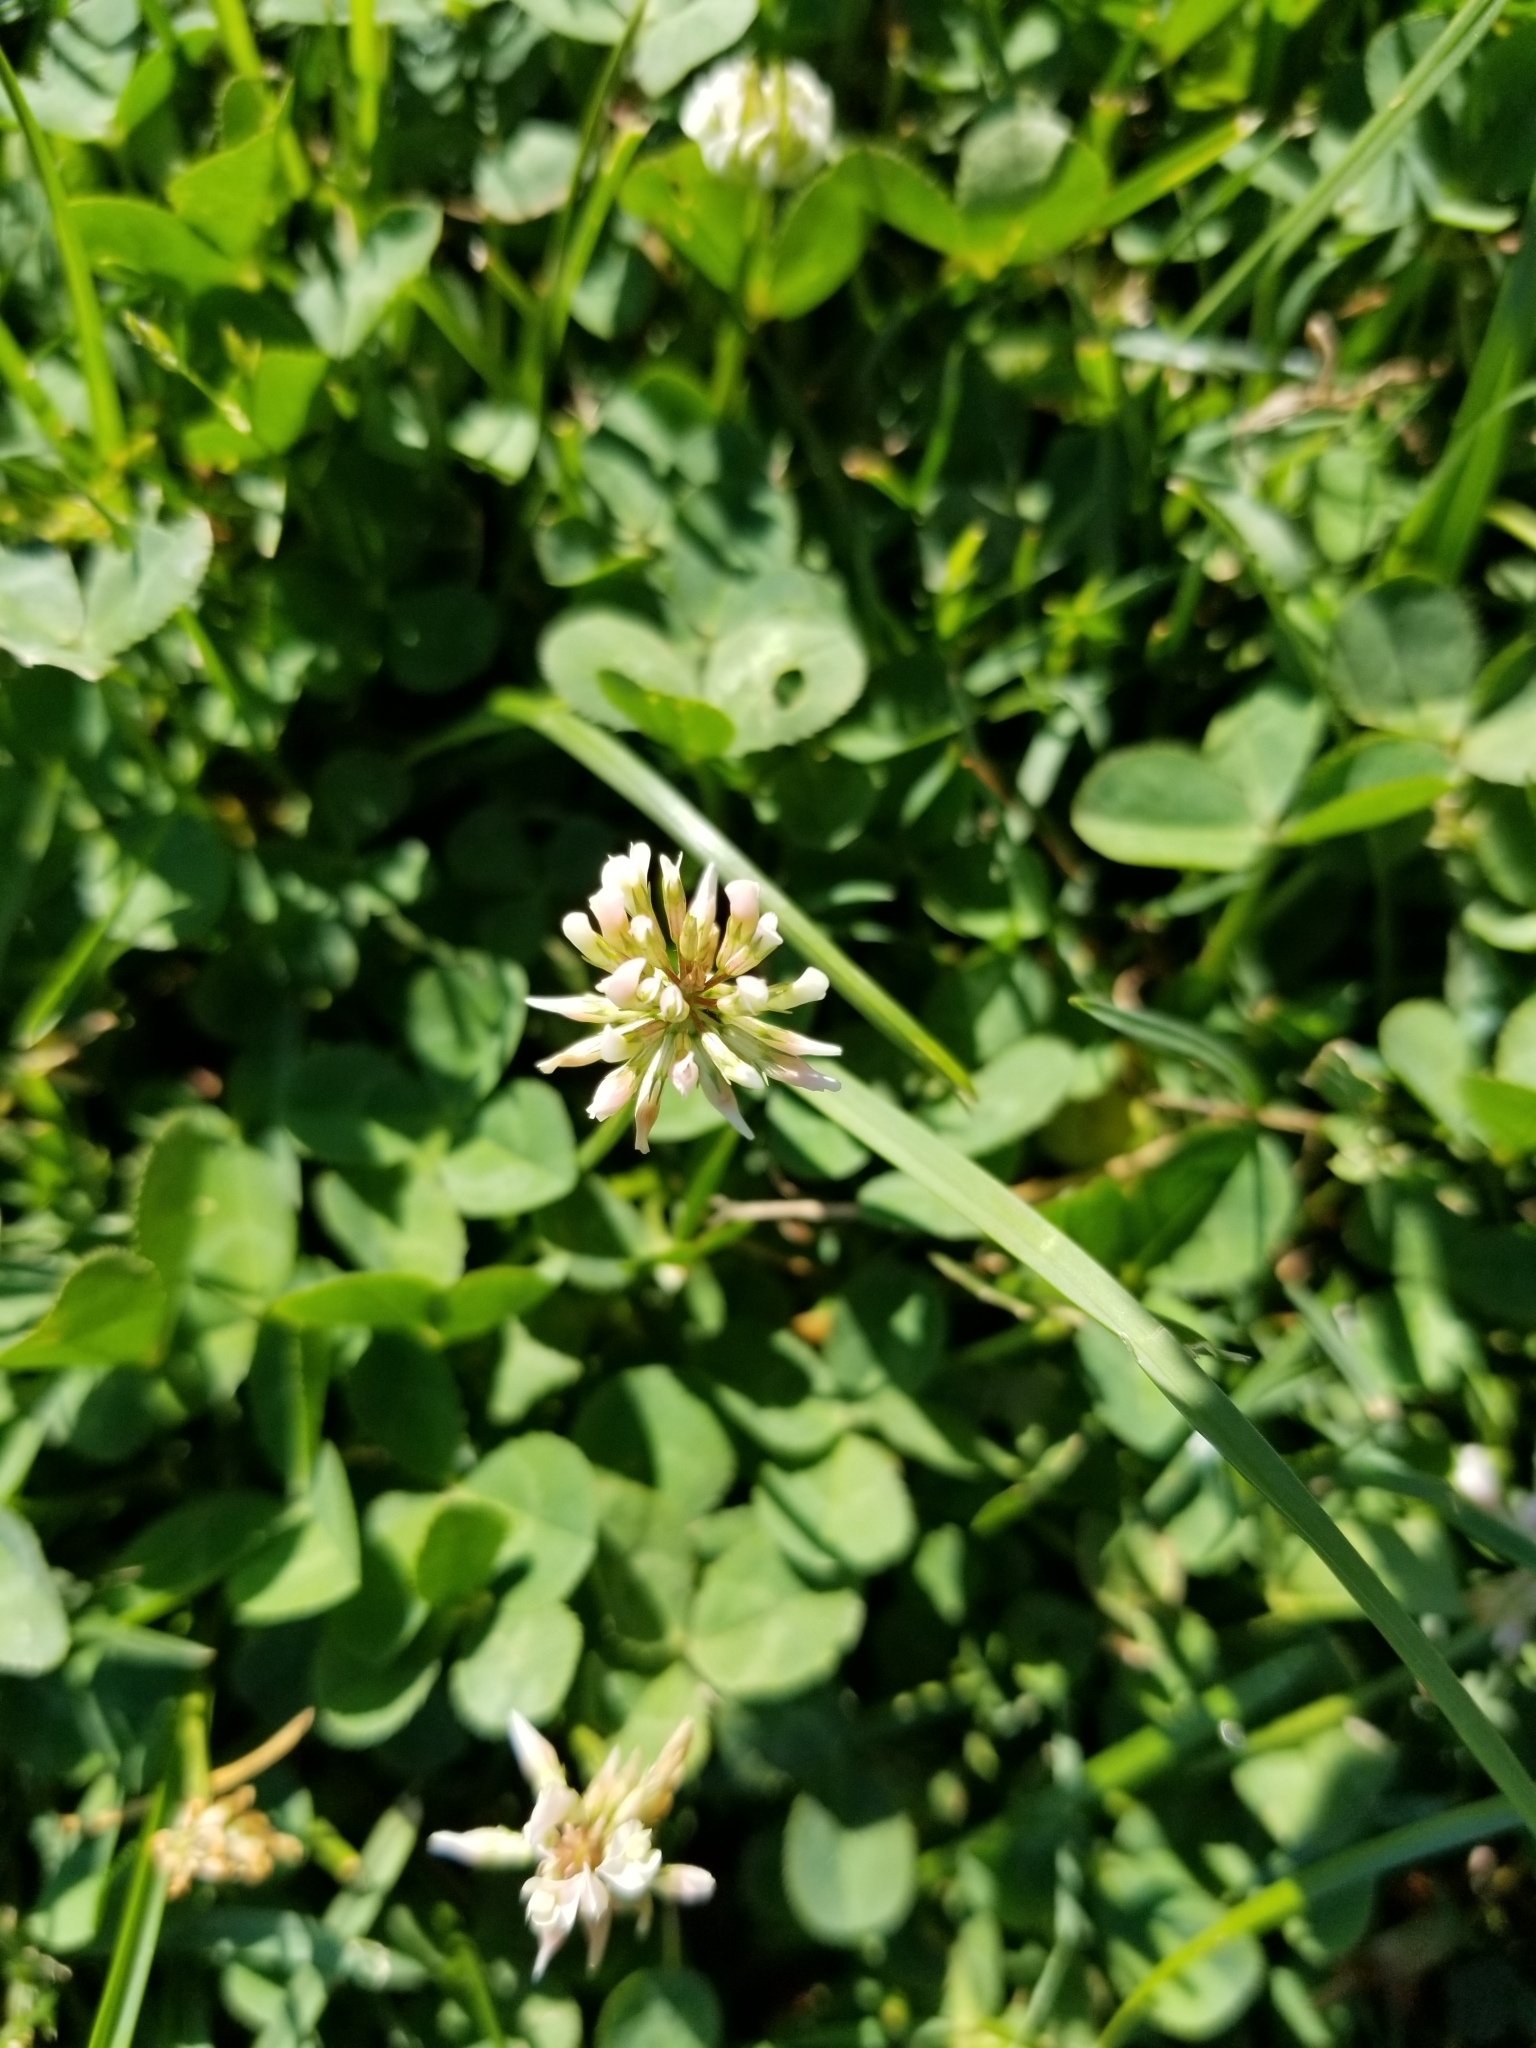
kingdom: Plantae
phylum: Tracheophyta
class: Magnoliopsida
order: Fabales
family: Fabaceae
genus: Trifolium
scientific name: Trifolium repens
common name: White clover
